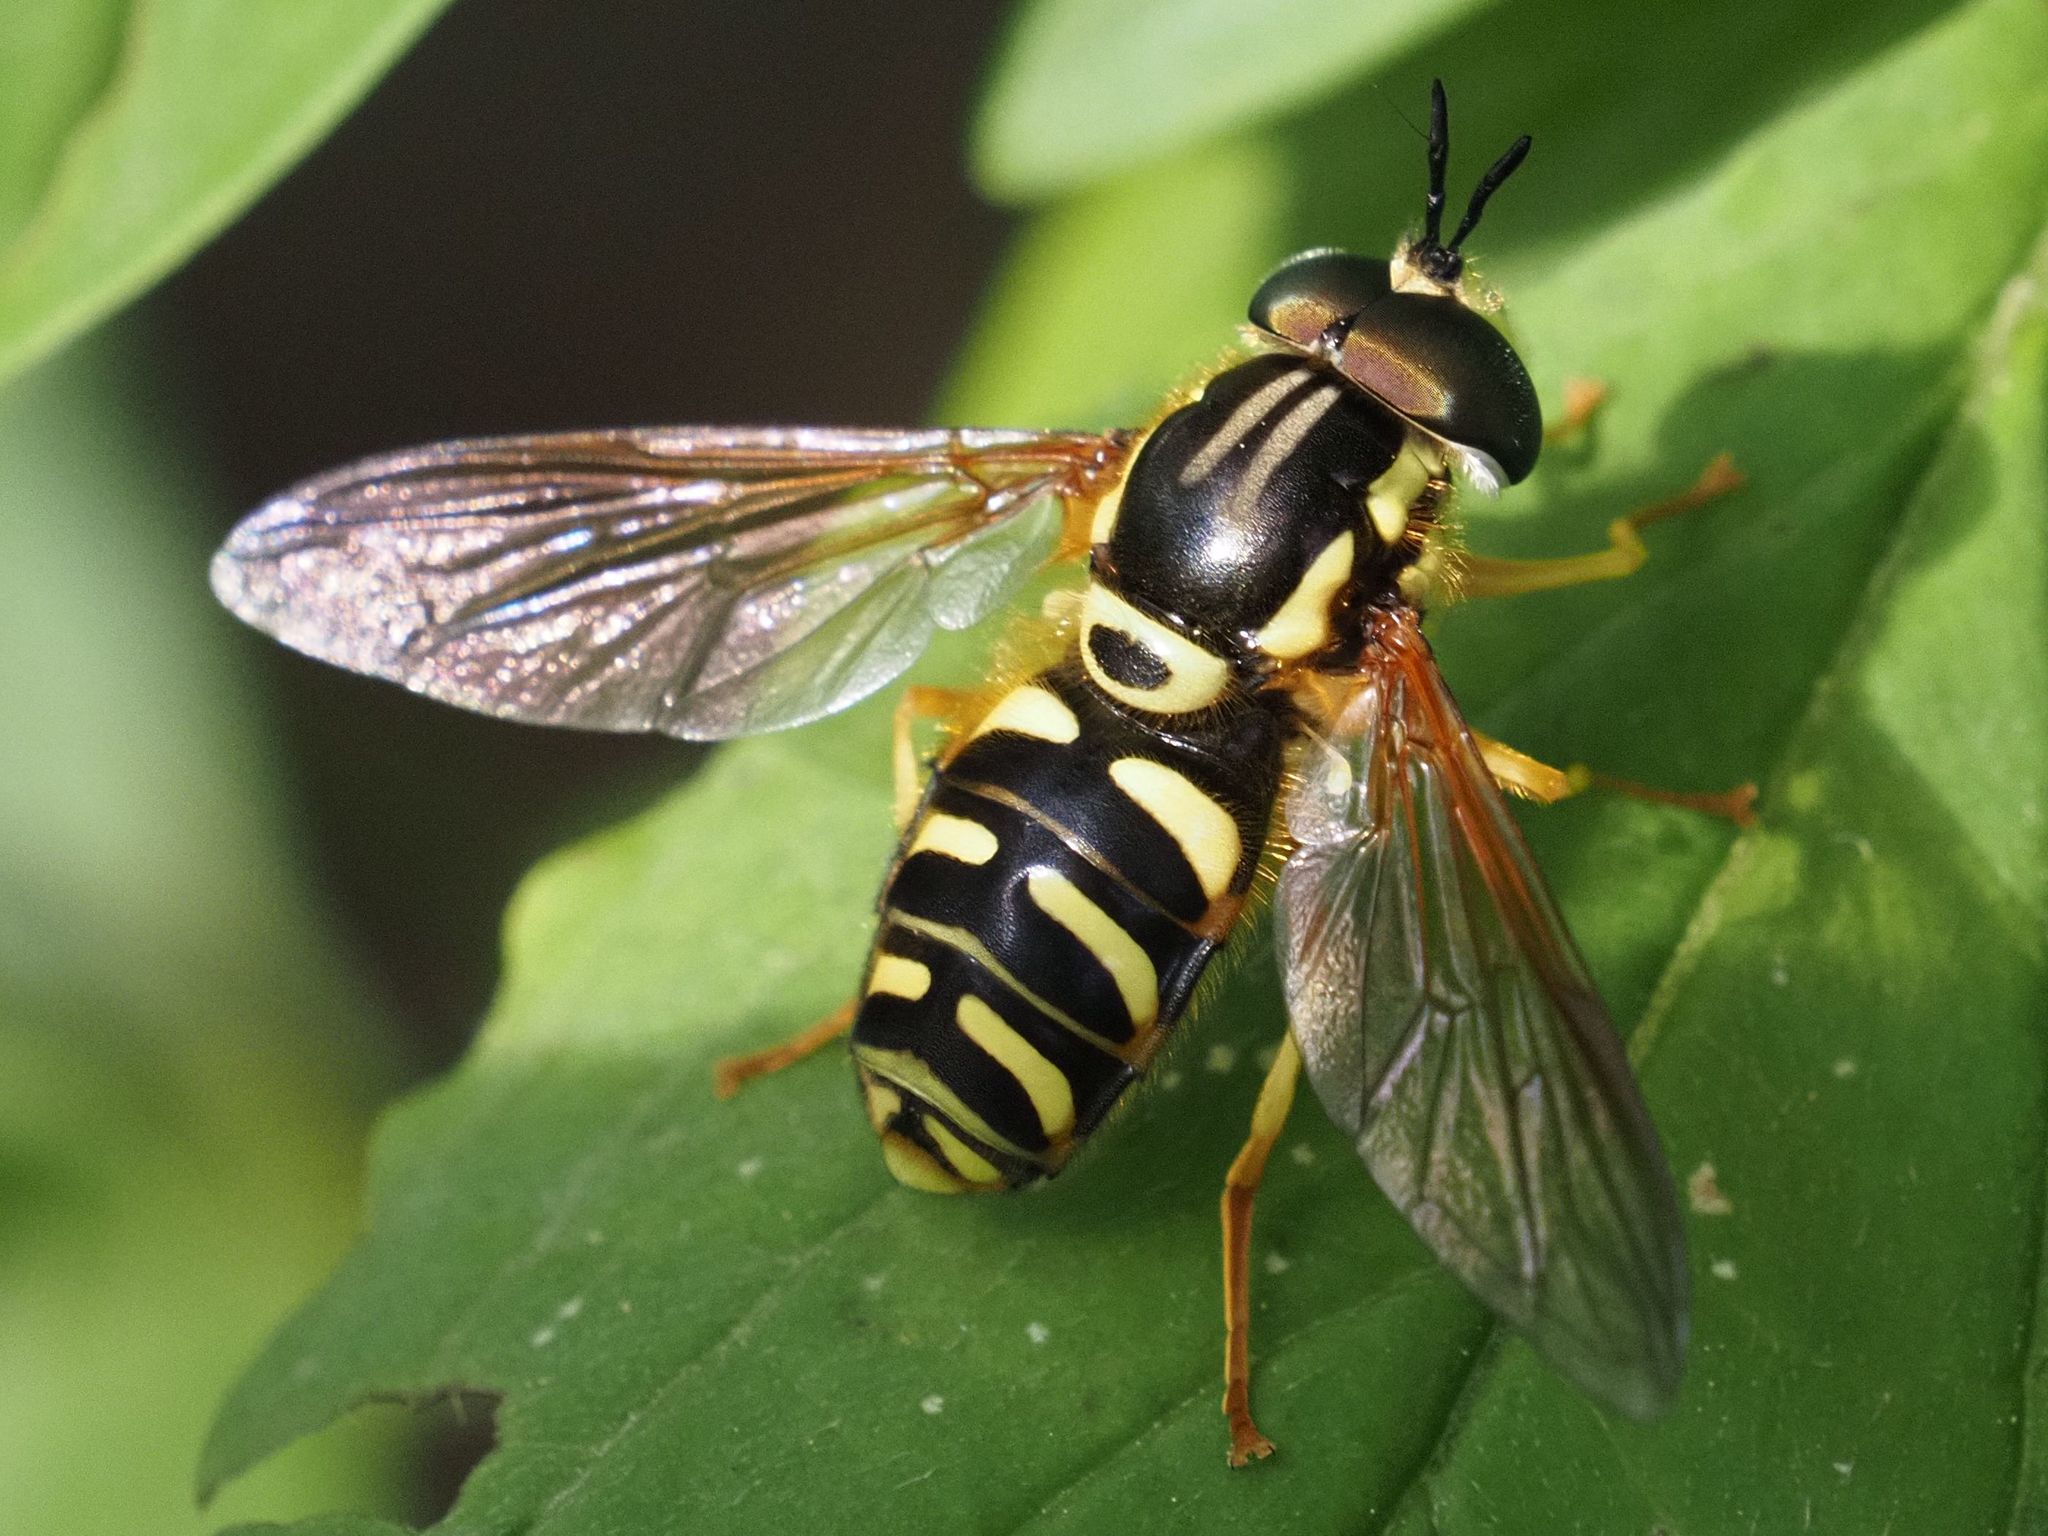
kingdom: Animalia
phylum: Arthropoda
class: Insecta
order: Diptera
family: Syrphidae
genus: Chrysotoxum
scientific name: Chrysotoxum elegans
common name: Zipperback
